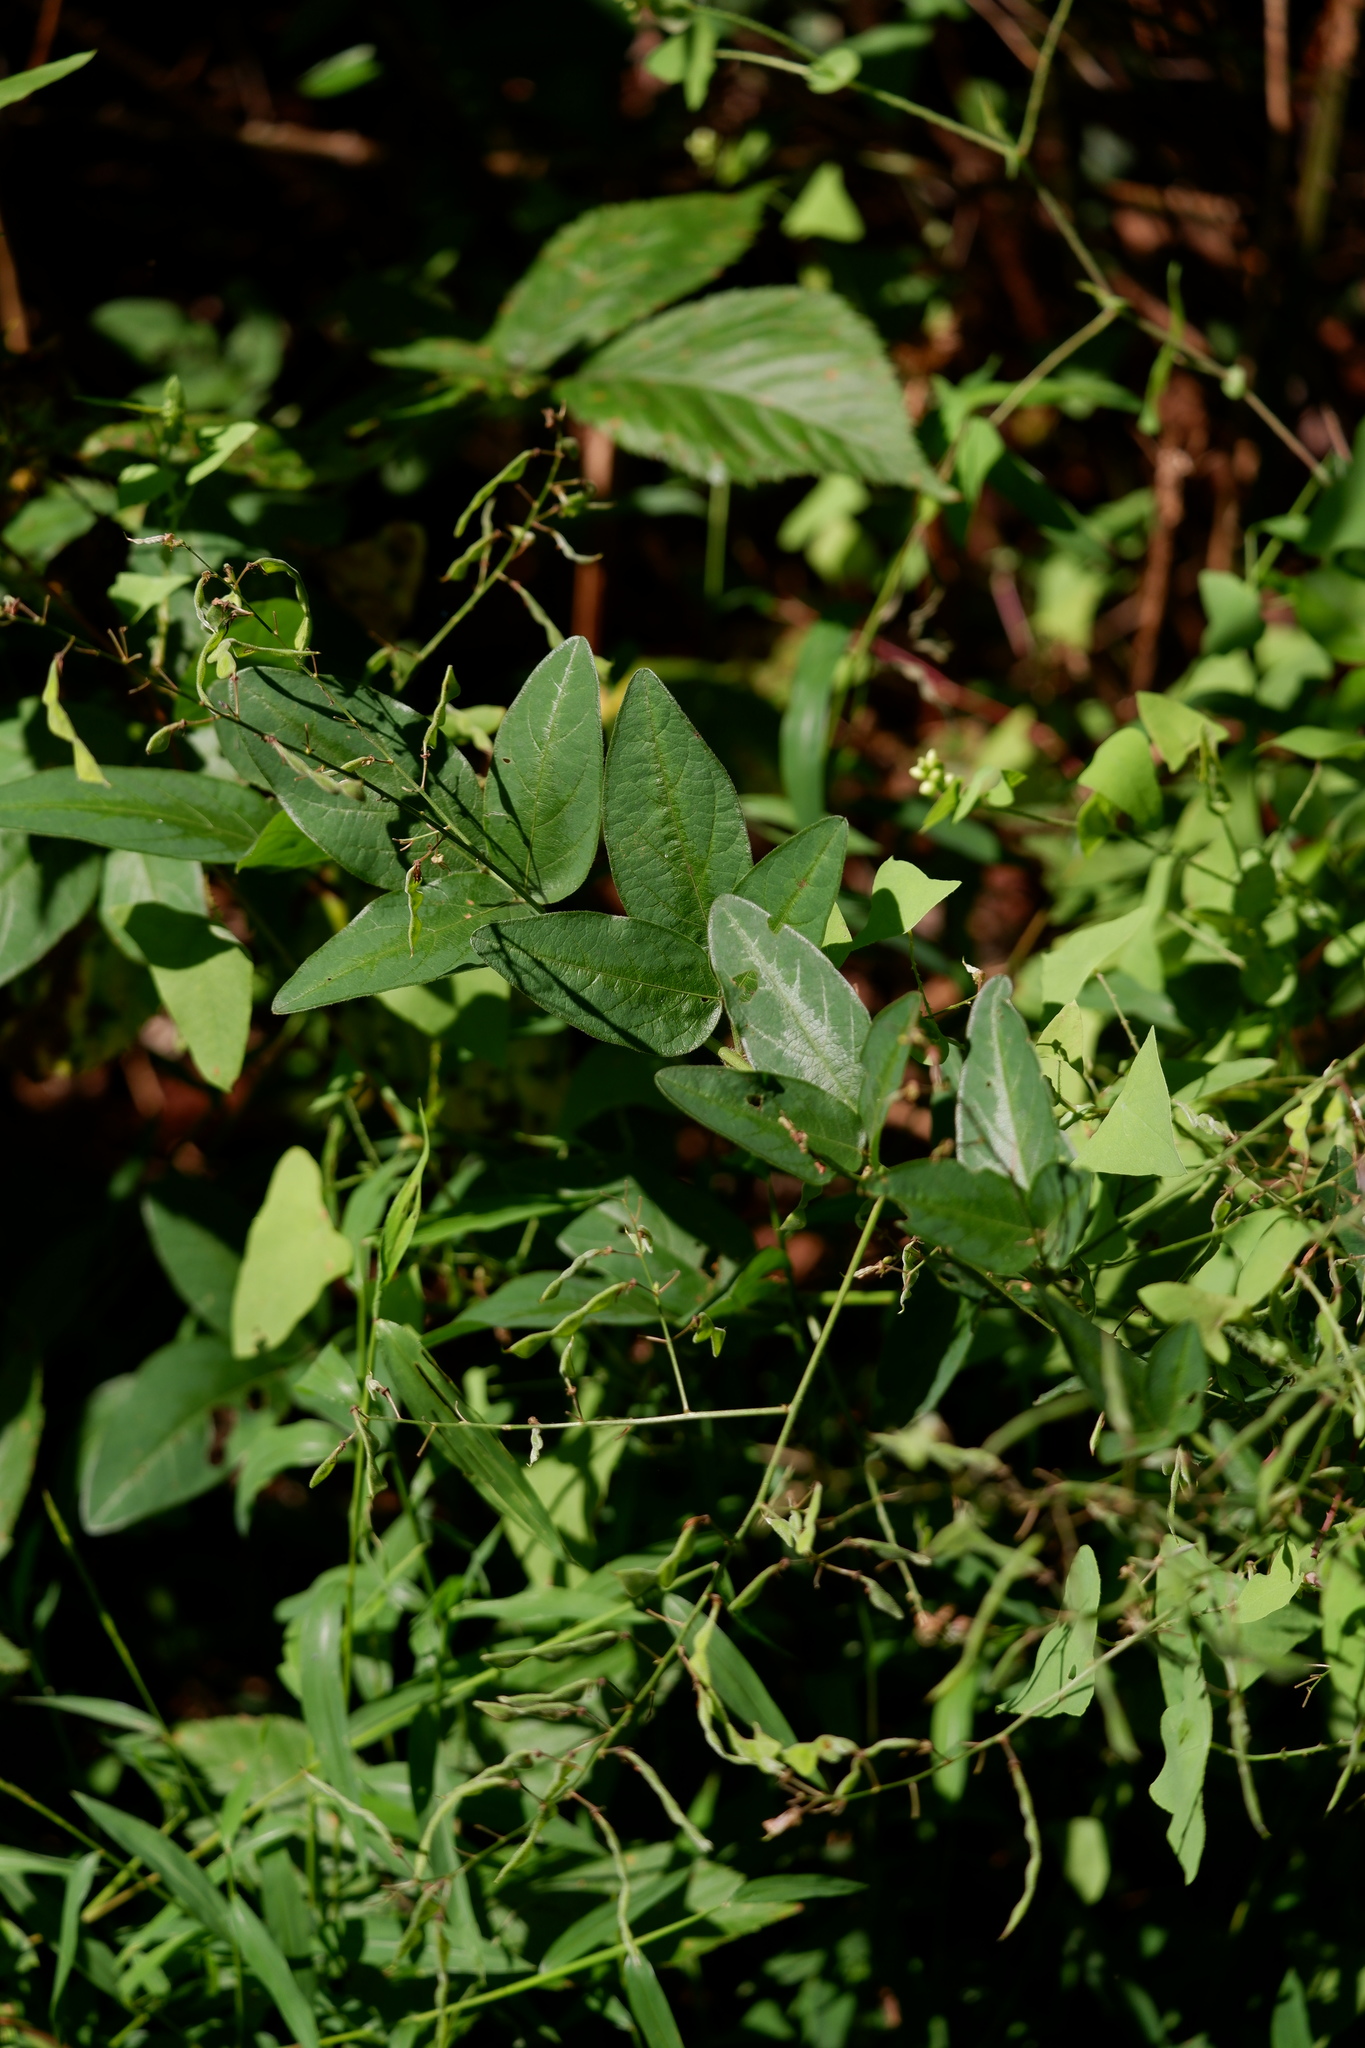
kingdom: Plantae
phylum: Tracheophyta
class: Magnoliopsida
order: Fabales
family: Fabaceae
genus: Desmodium
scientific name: Desmodium glabellum
